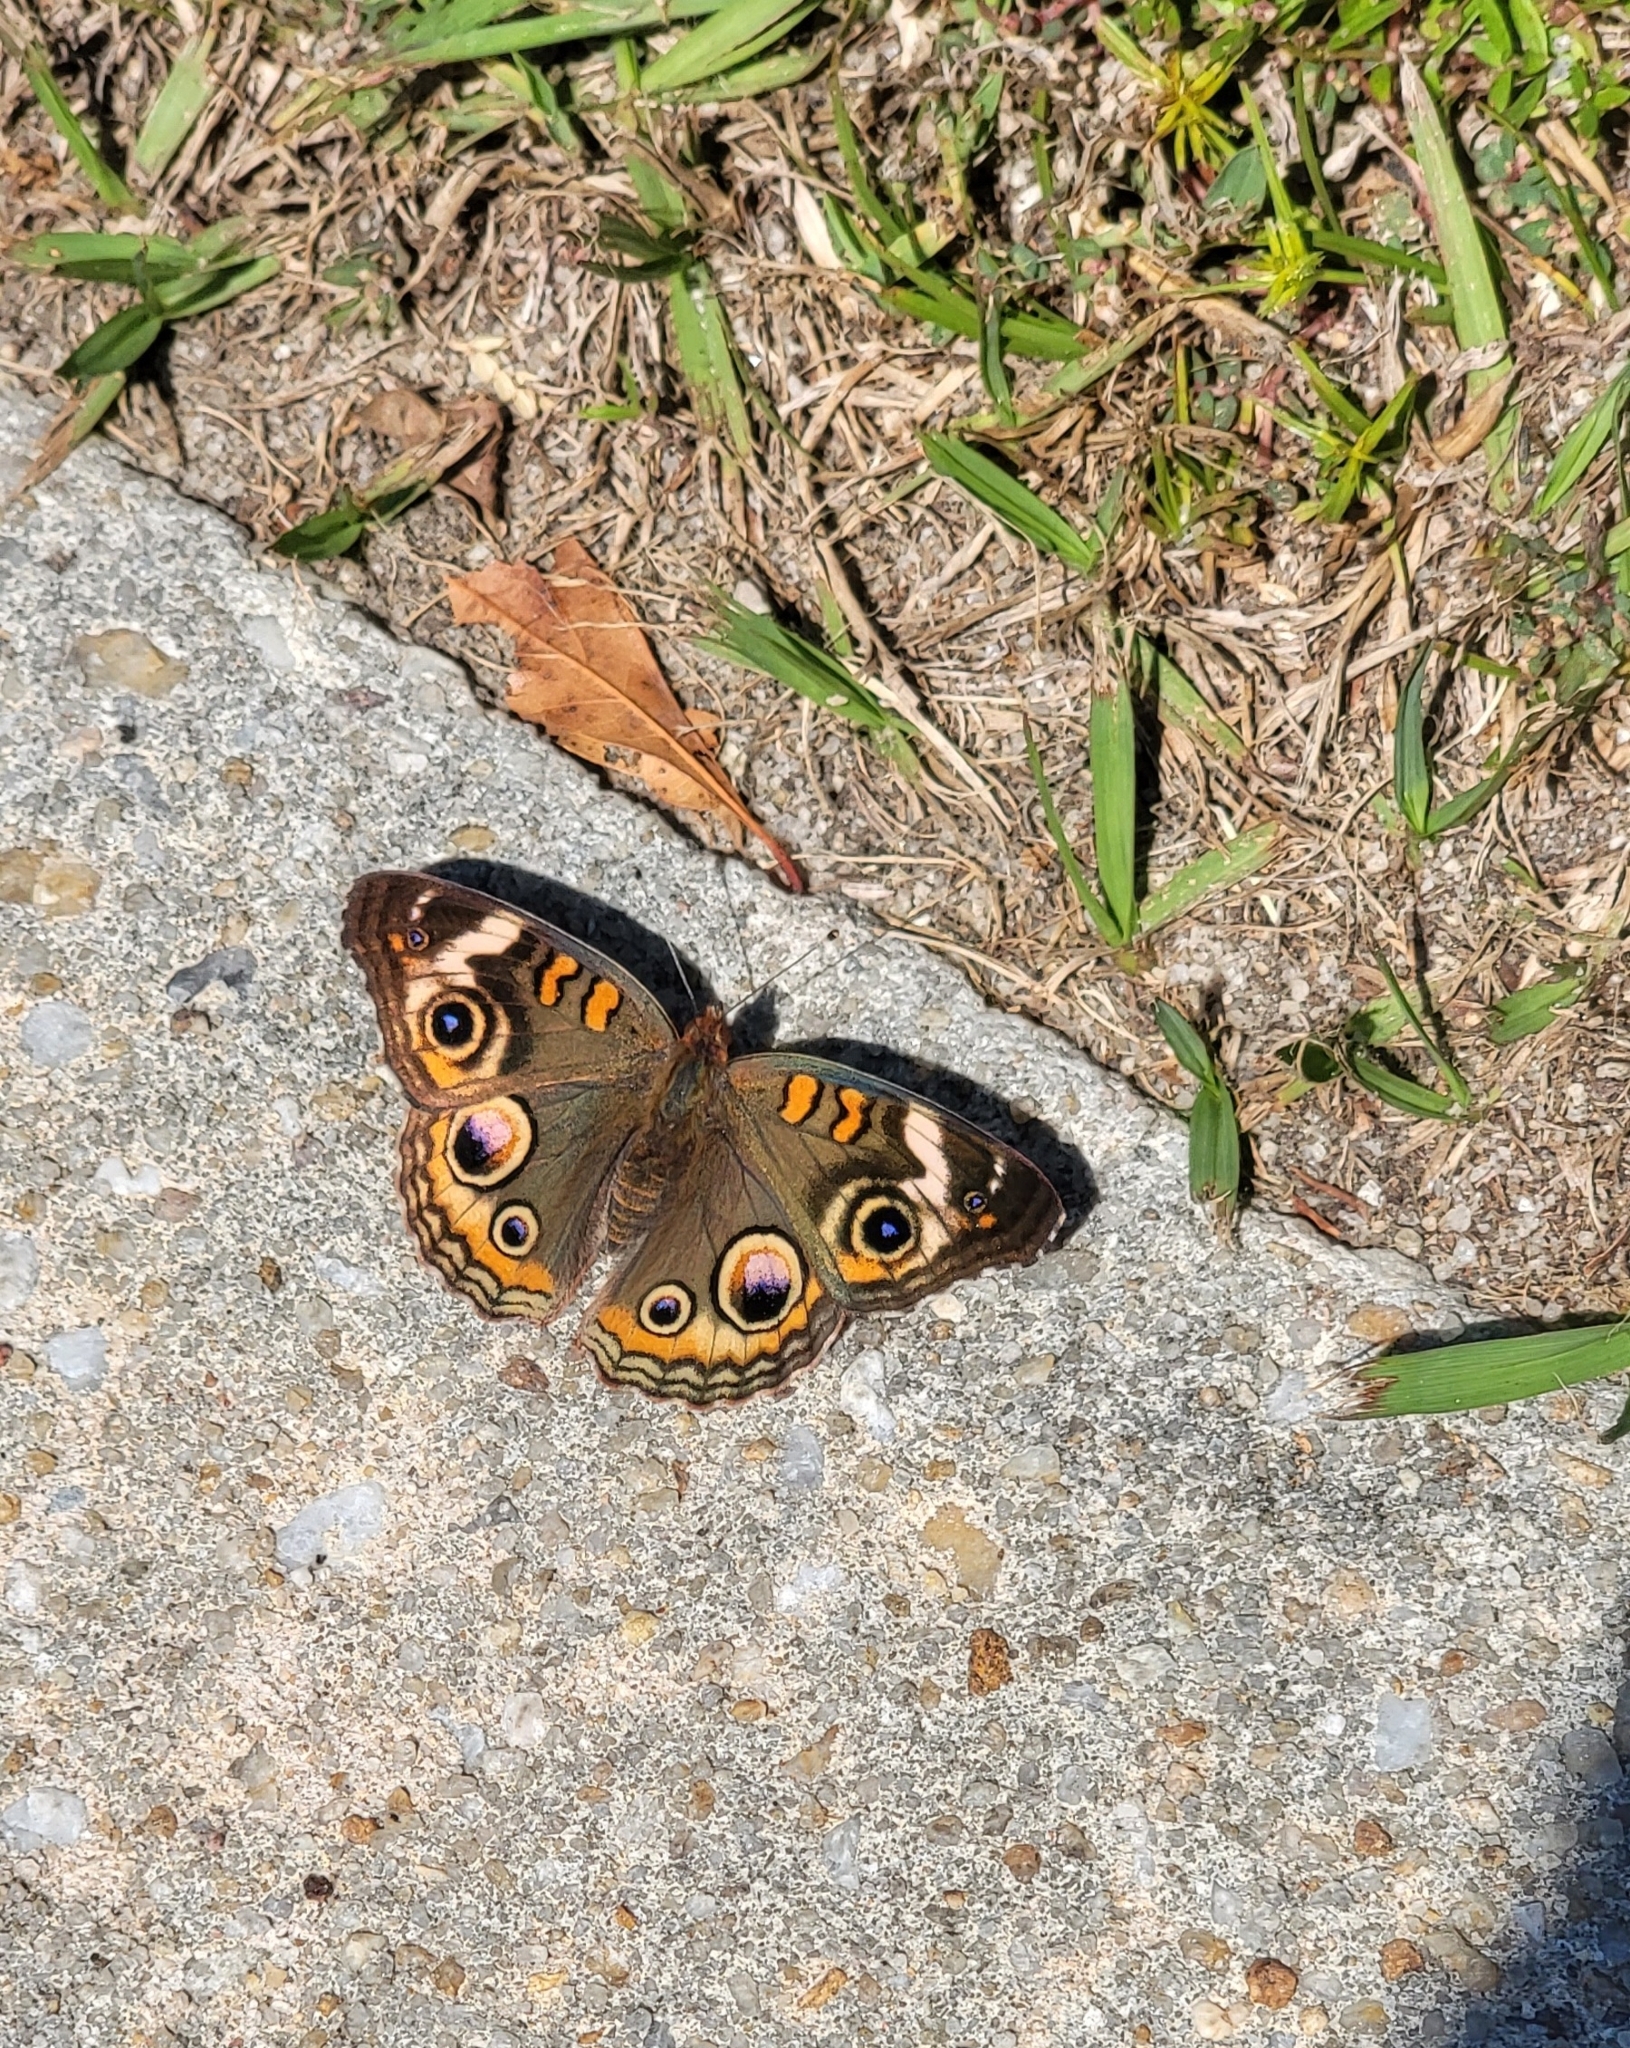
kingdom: Animalia
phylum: Arthropoda
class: Insecta
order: Lepidoptera
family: Nymphalidae
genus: Junonia
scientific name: Junonia coenia
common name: Common buckeye
